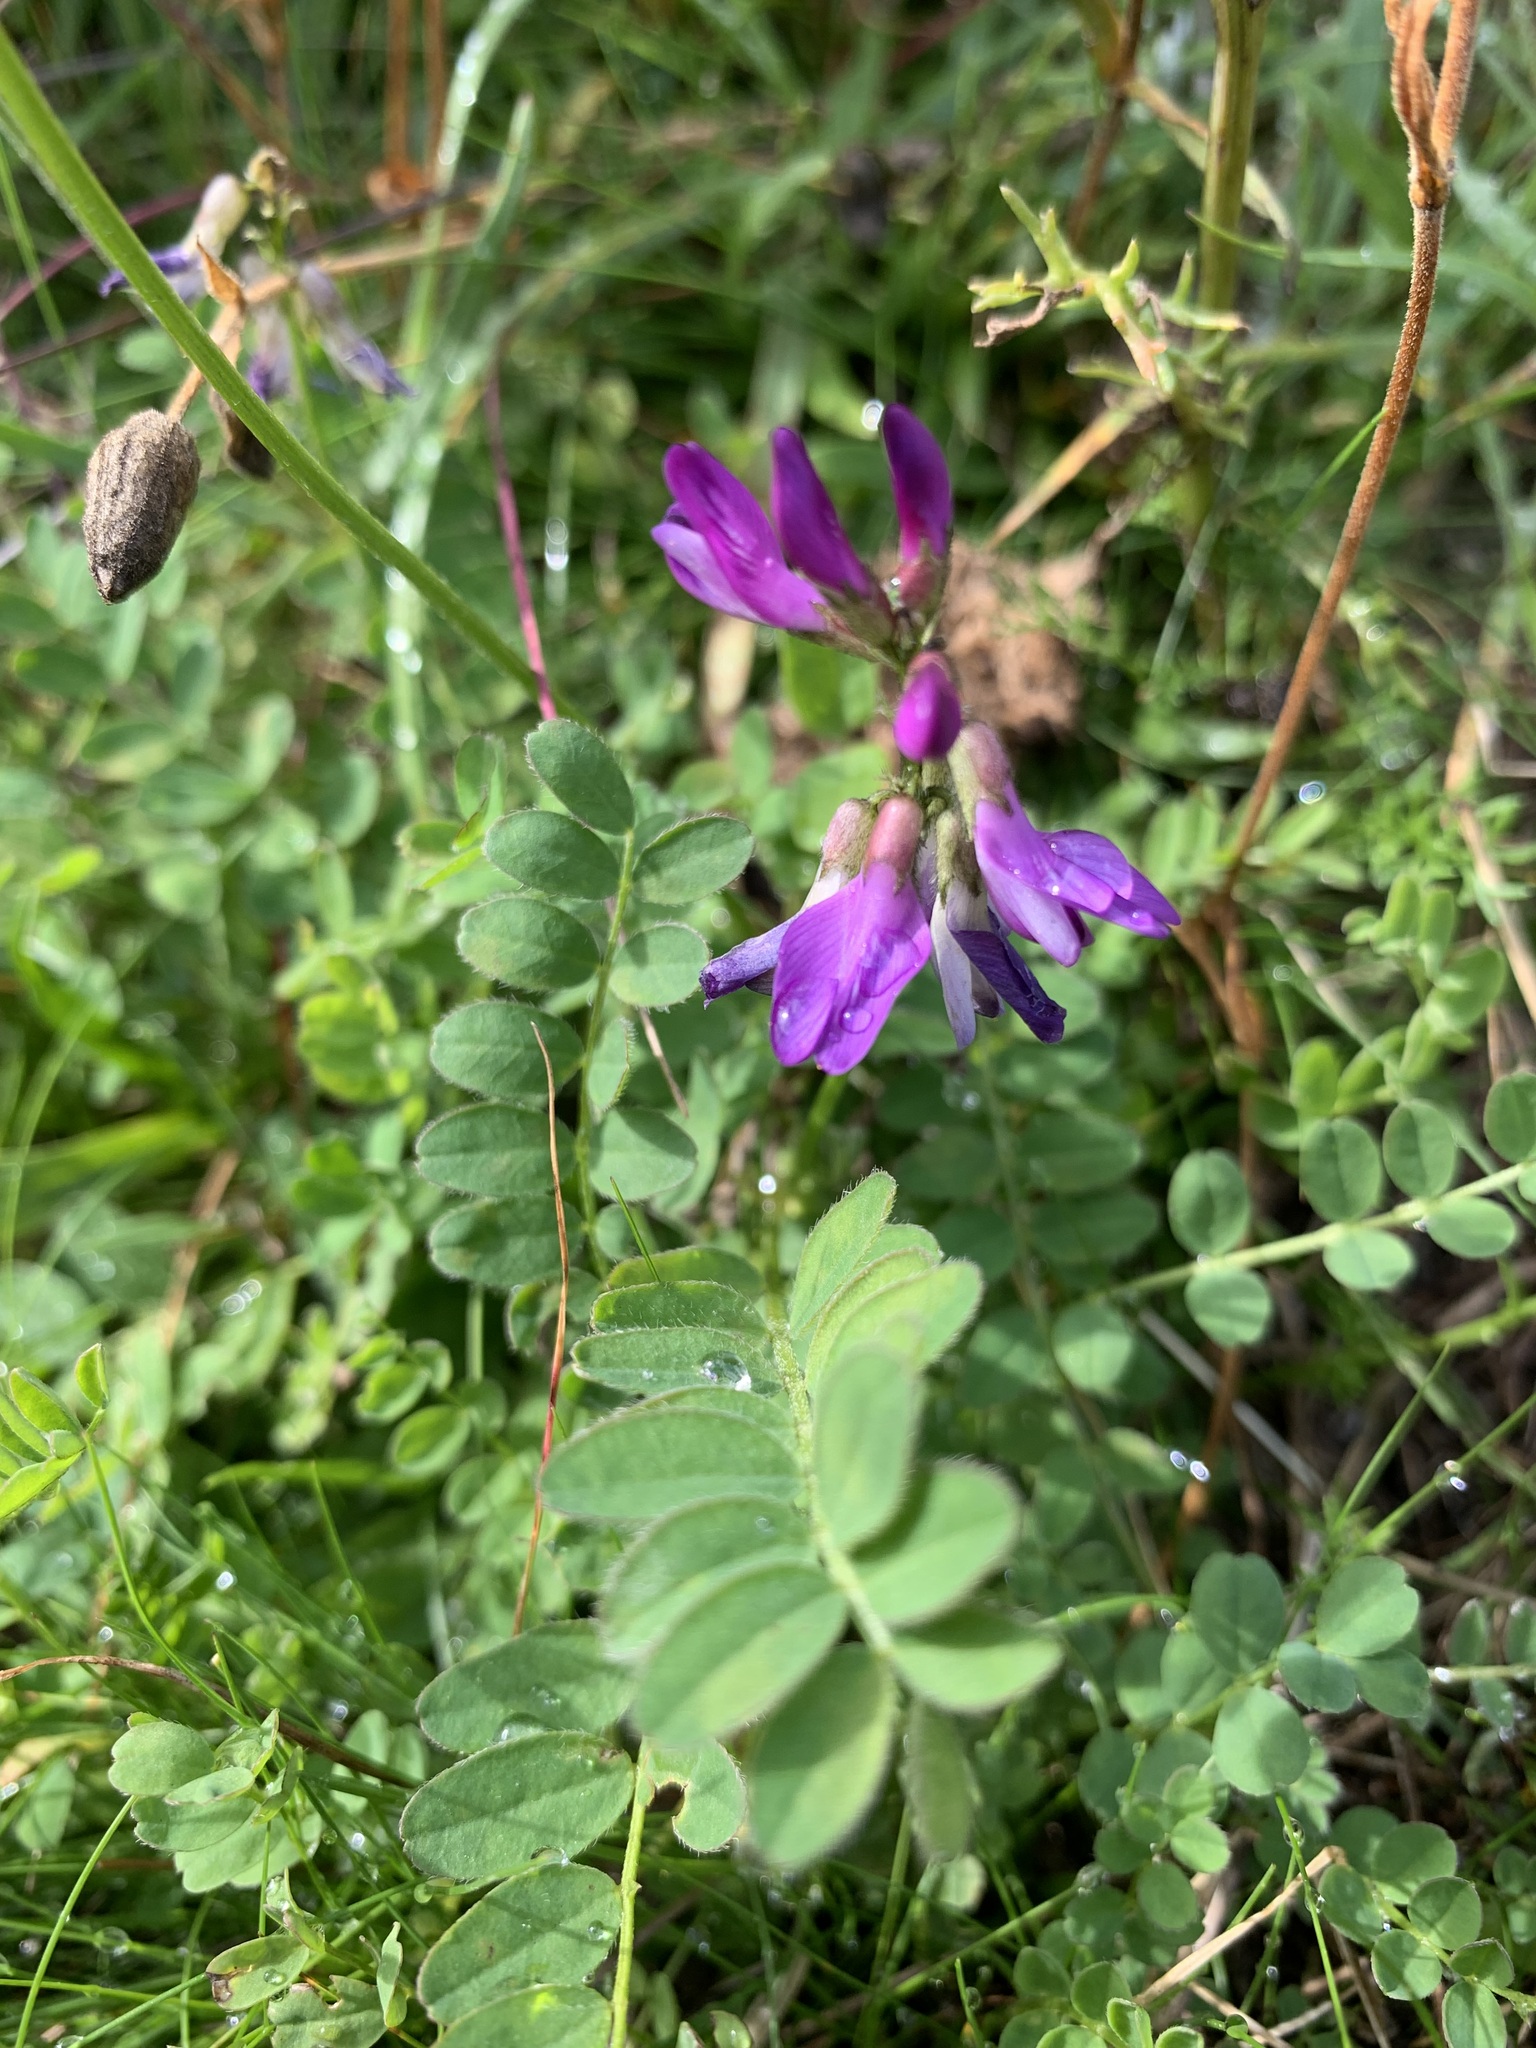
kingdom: Plantae
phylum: Tracheophyta
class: Magnoliopsida
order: Fabales
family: Fabaceae
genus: Astragalus
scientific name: Astragalus alpinus
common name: Alpine milk-vetch
